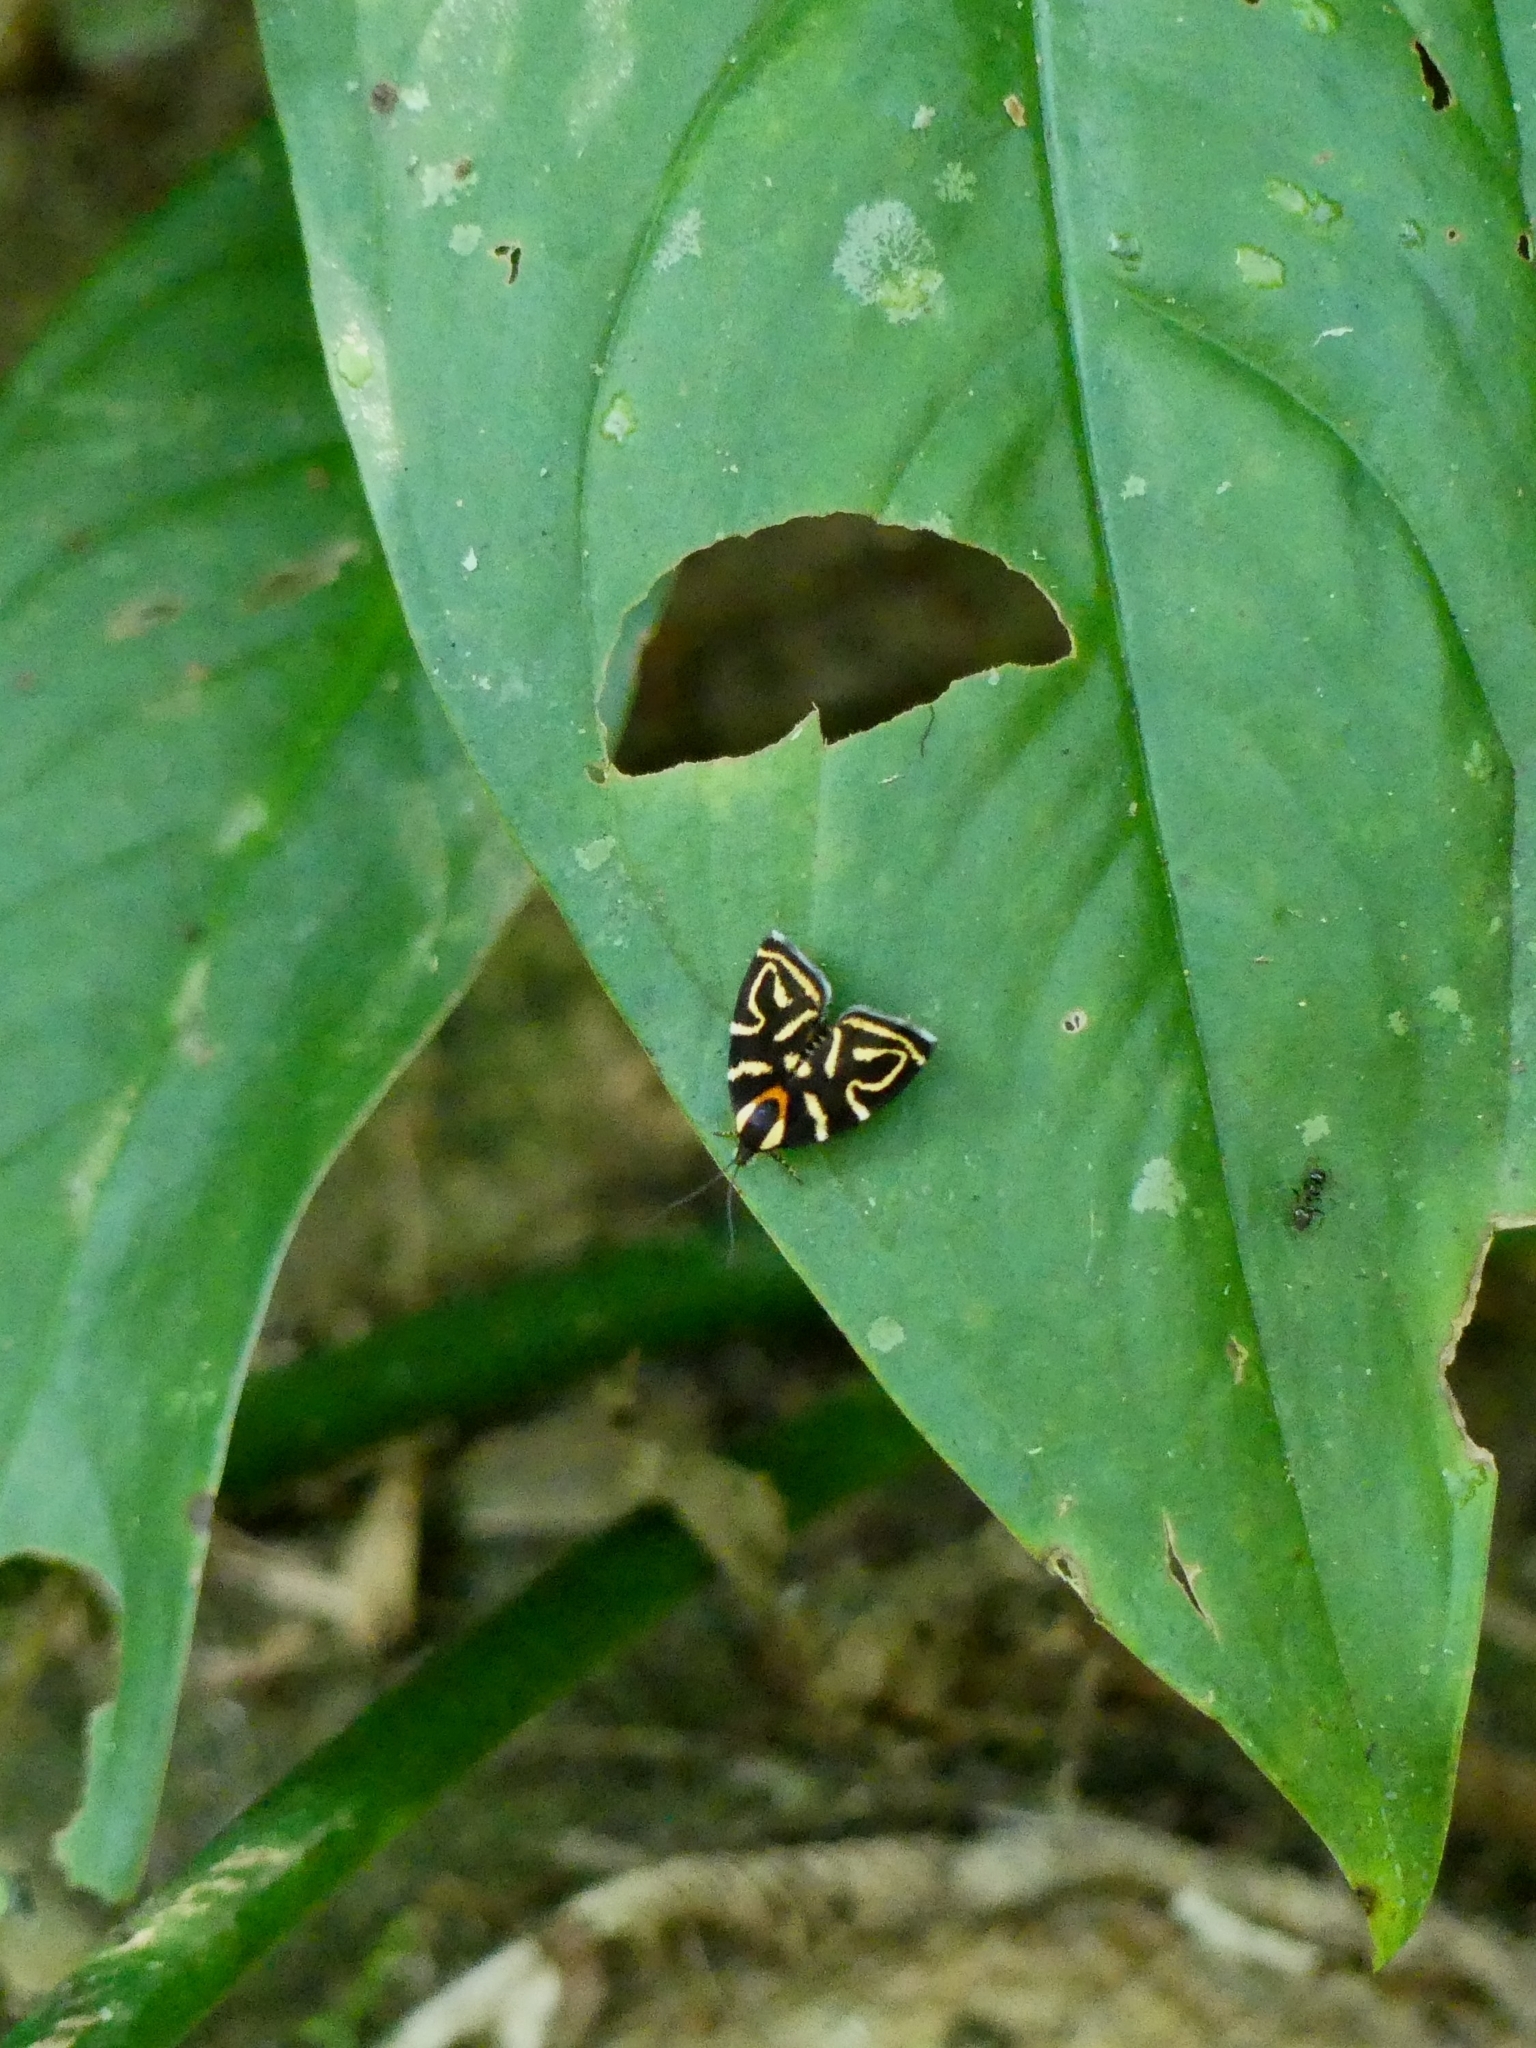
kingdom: Animalia
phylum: Arthropoda
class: Insecta
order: Lepidoptera
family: Choreutidae
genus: Anthophila
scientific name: Anthophila albertiana
